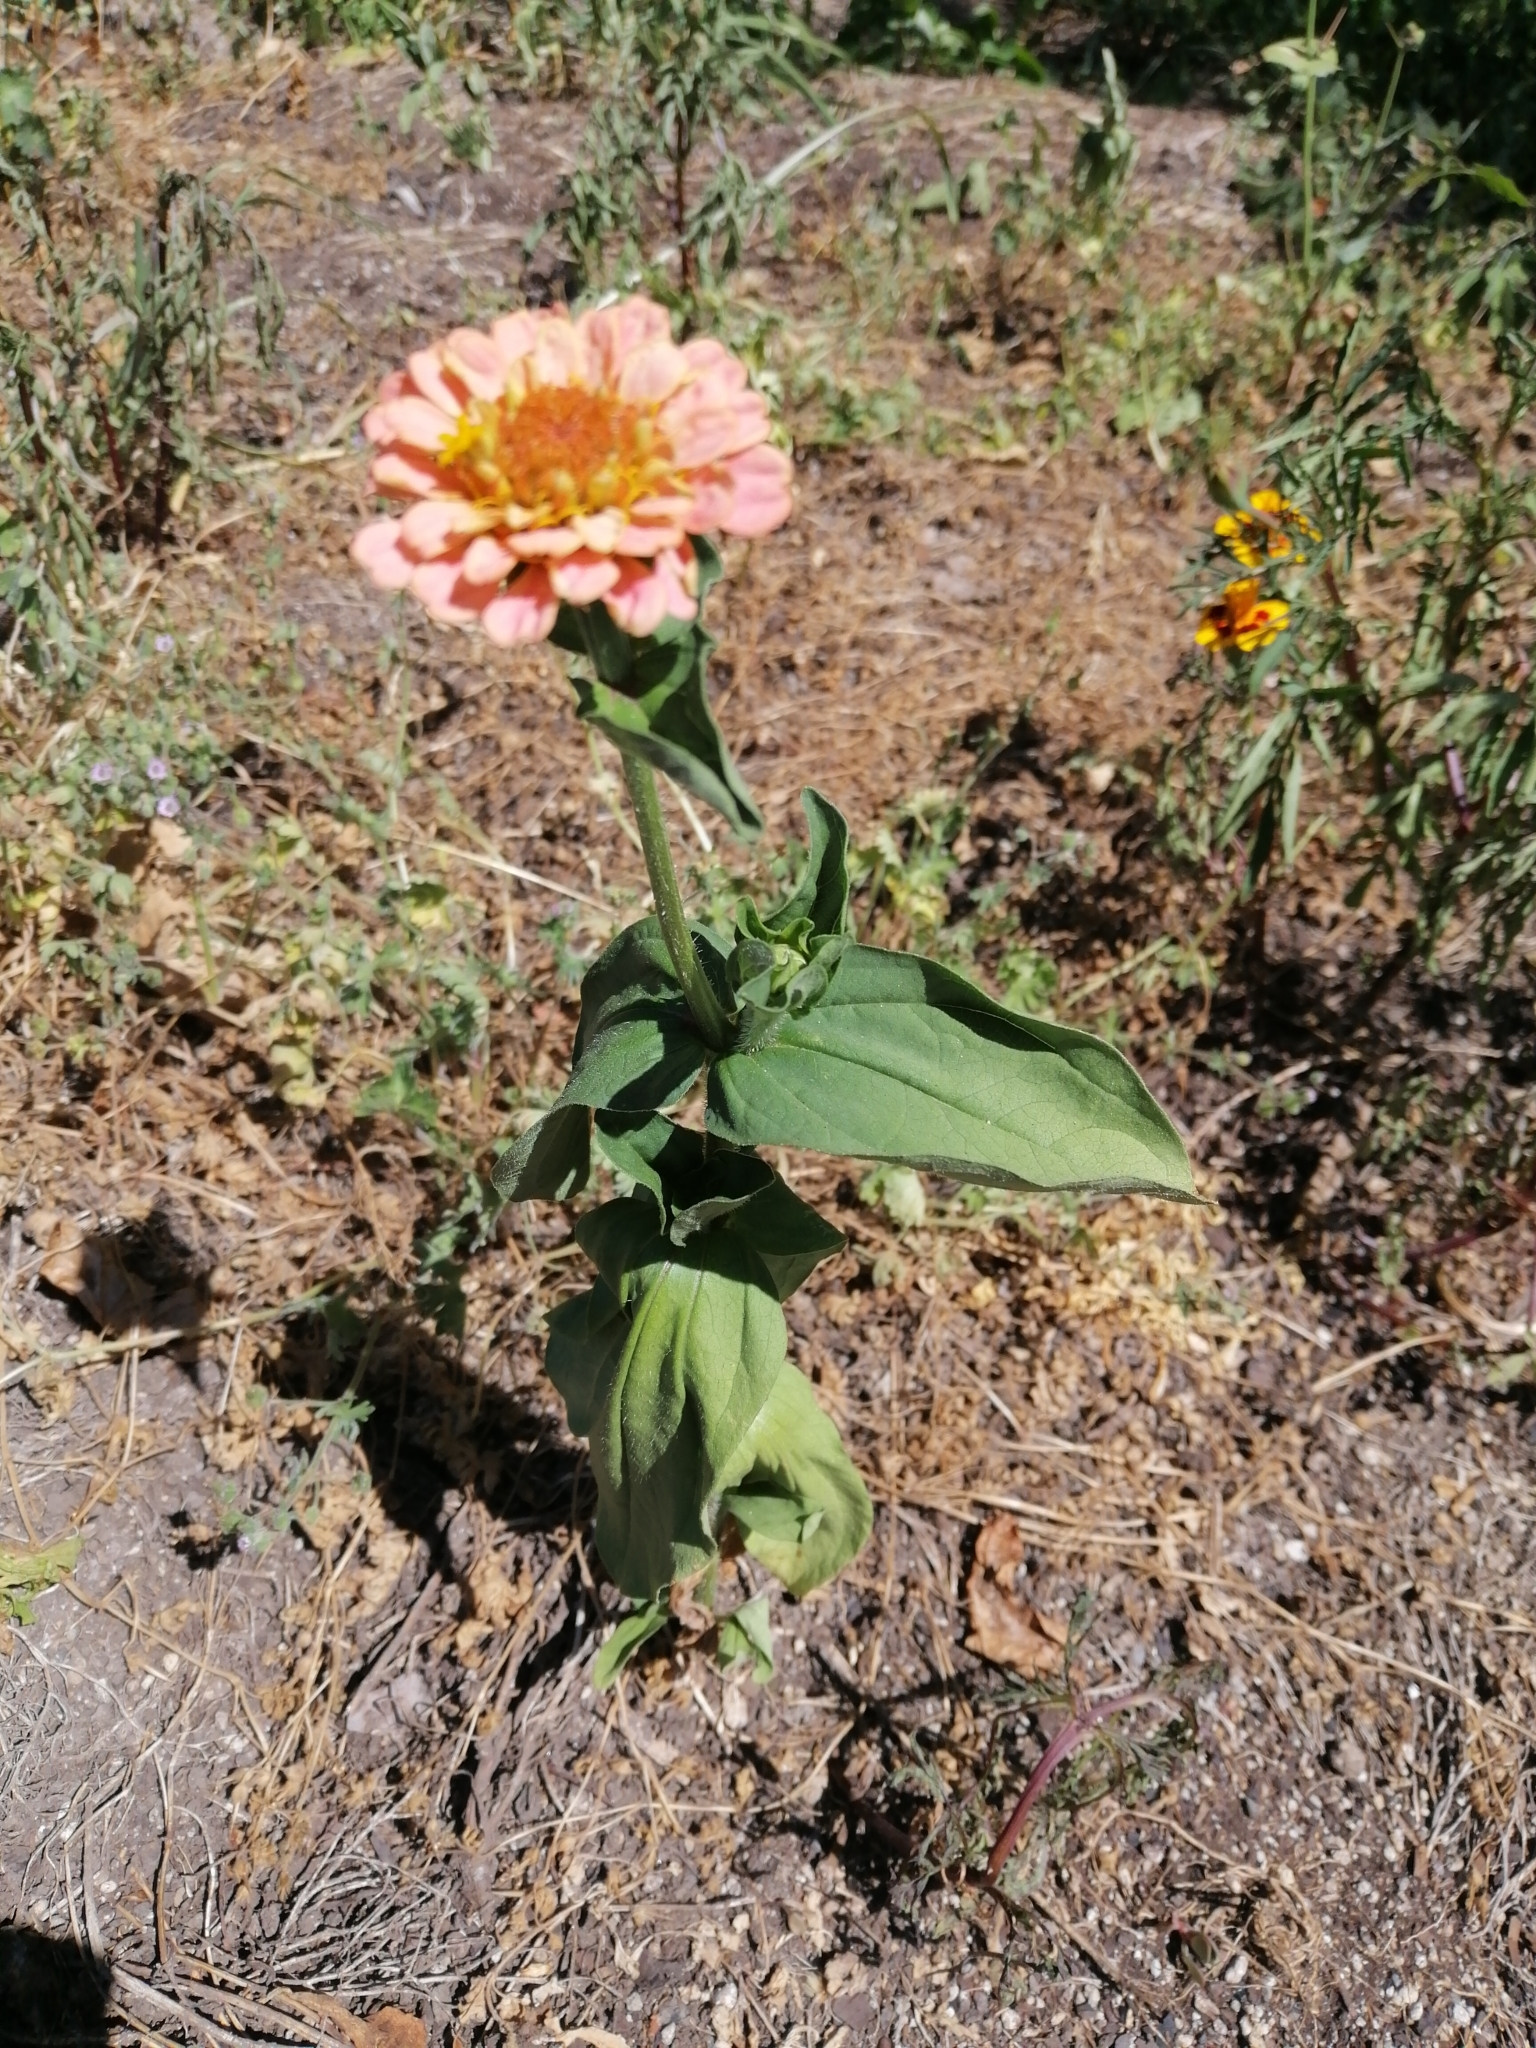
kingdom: Plantae
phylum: Tracheophyta
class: Magnoliopsida
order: Asterales
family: Asteraceae
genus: Zinnia
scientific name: Zinnia elegans
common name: Youth-and-age
